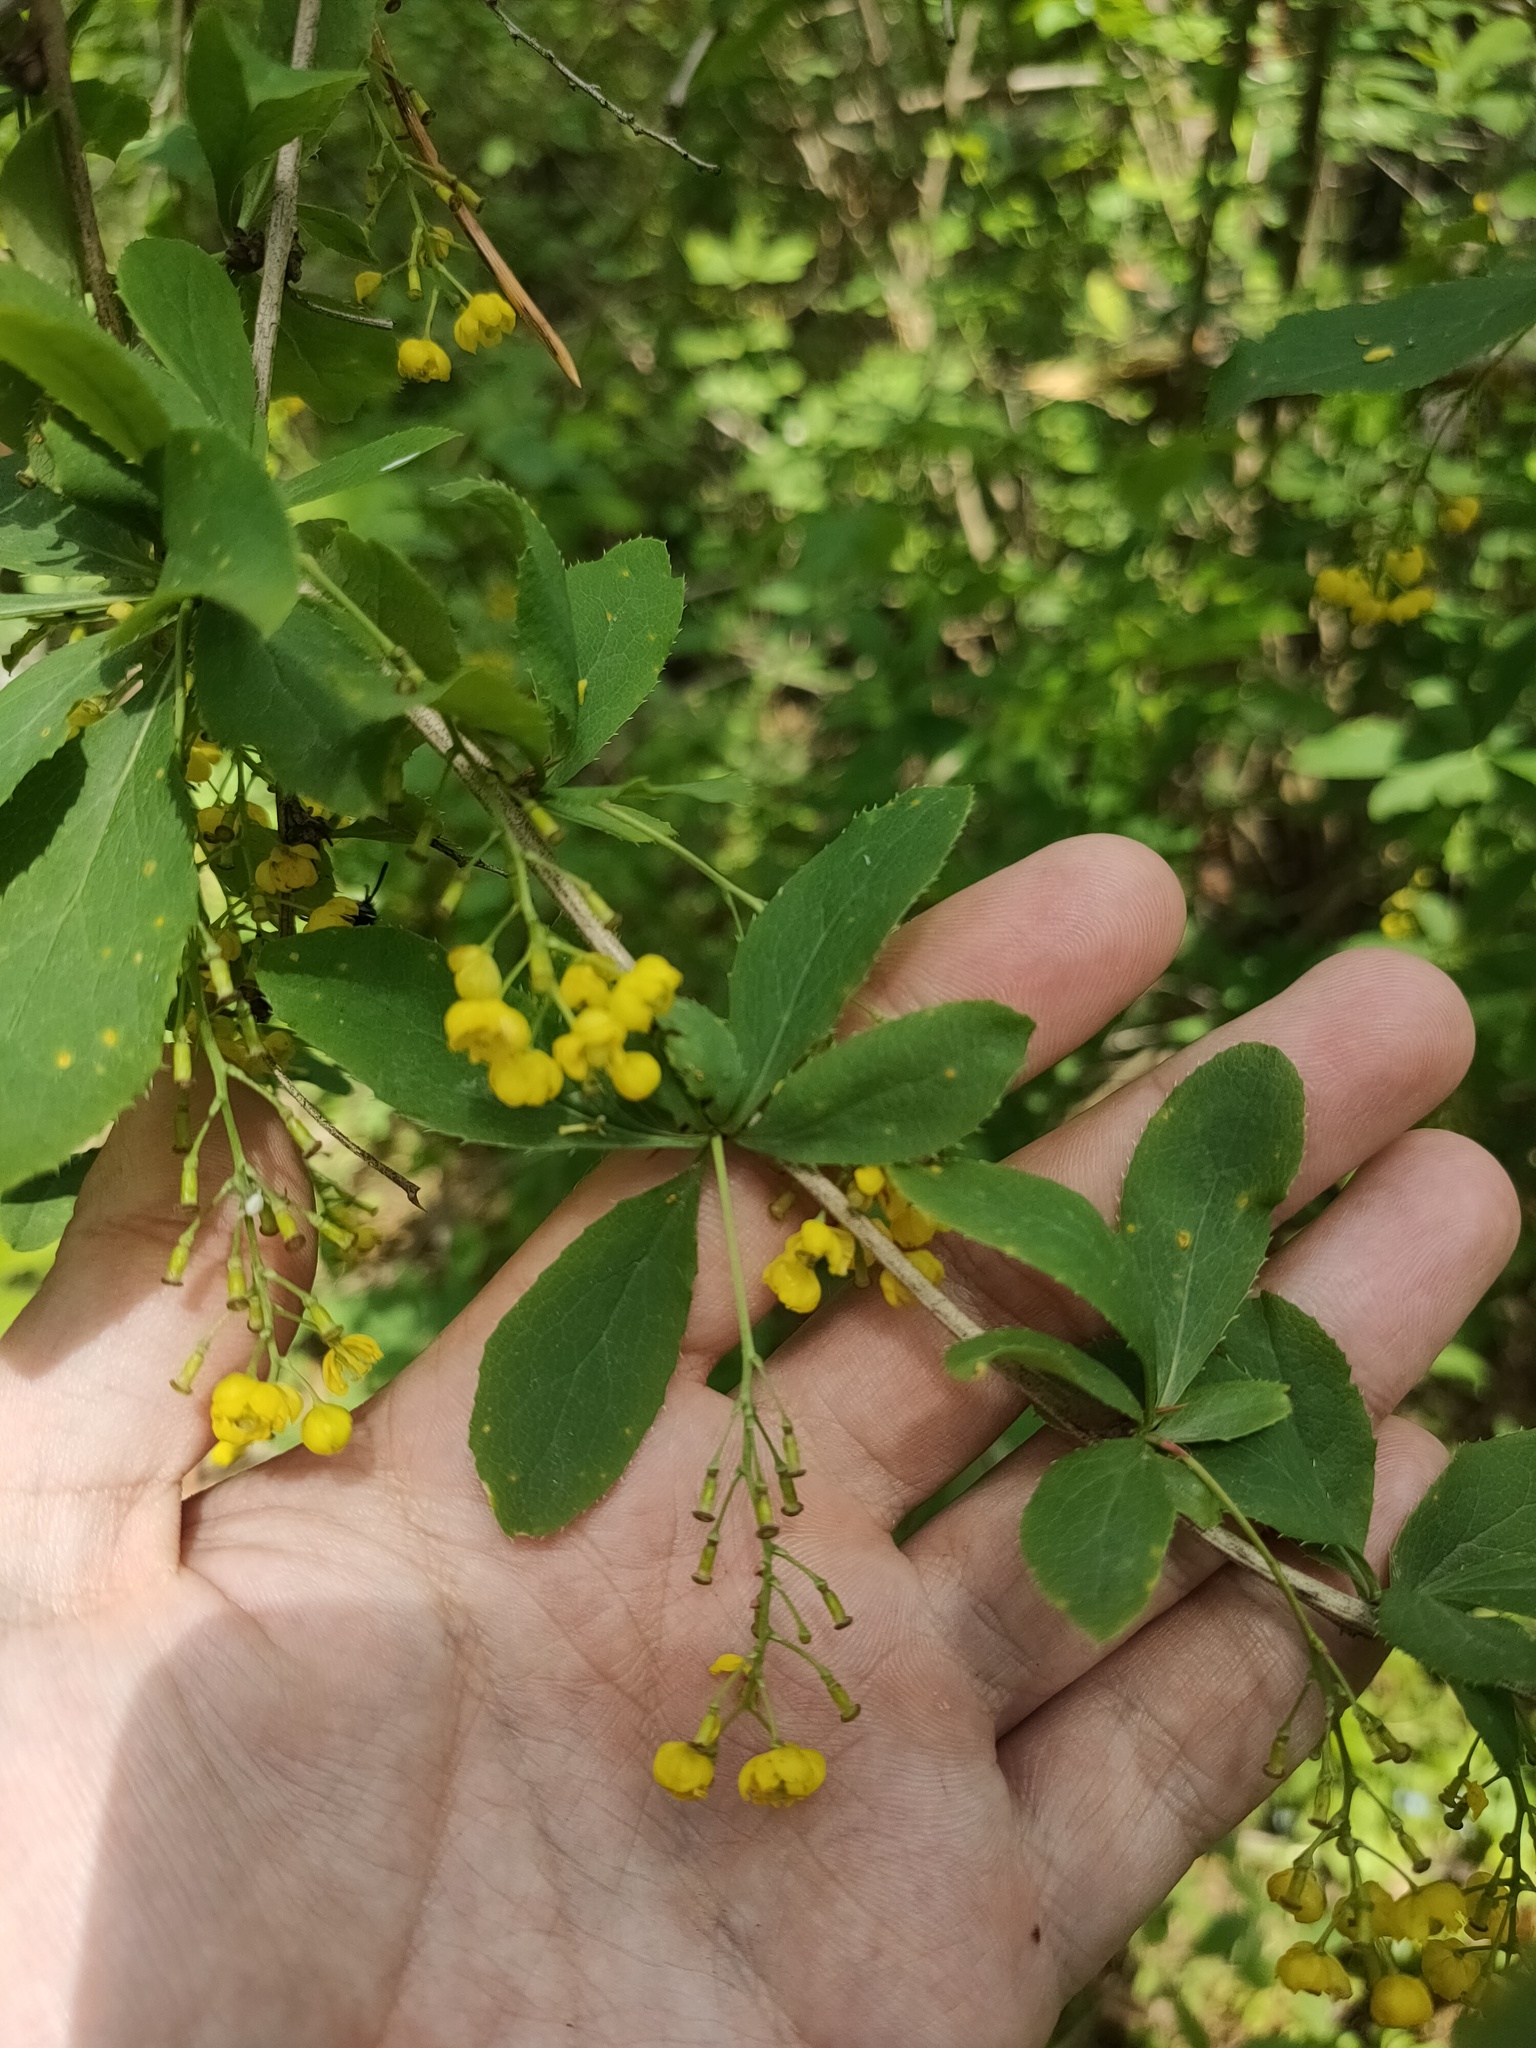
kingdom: Plantae
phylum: Tracheophyta
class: Magnoliopsida
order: Ranunculales
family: Berberidaceae
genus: Berberis
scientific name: Berberis vulgaris
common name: Barberry
